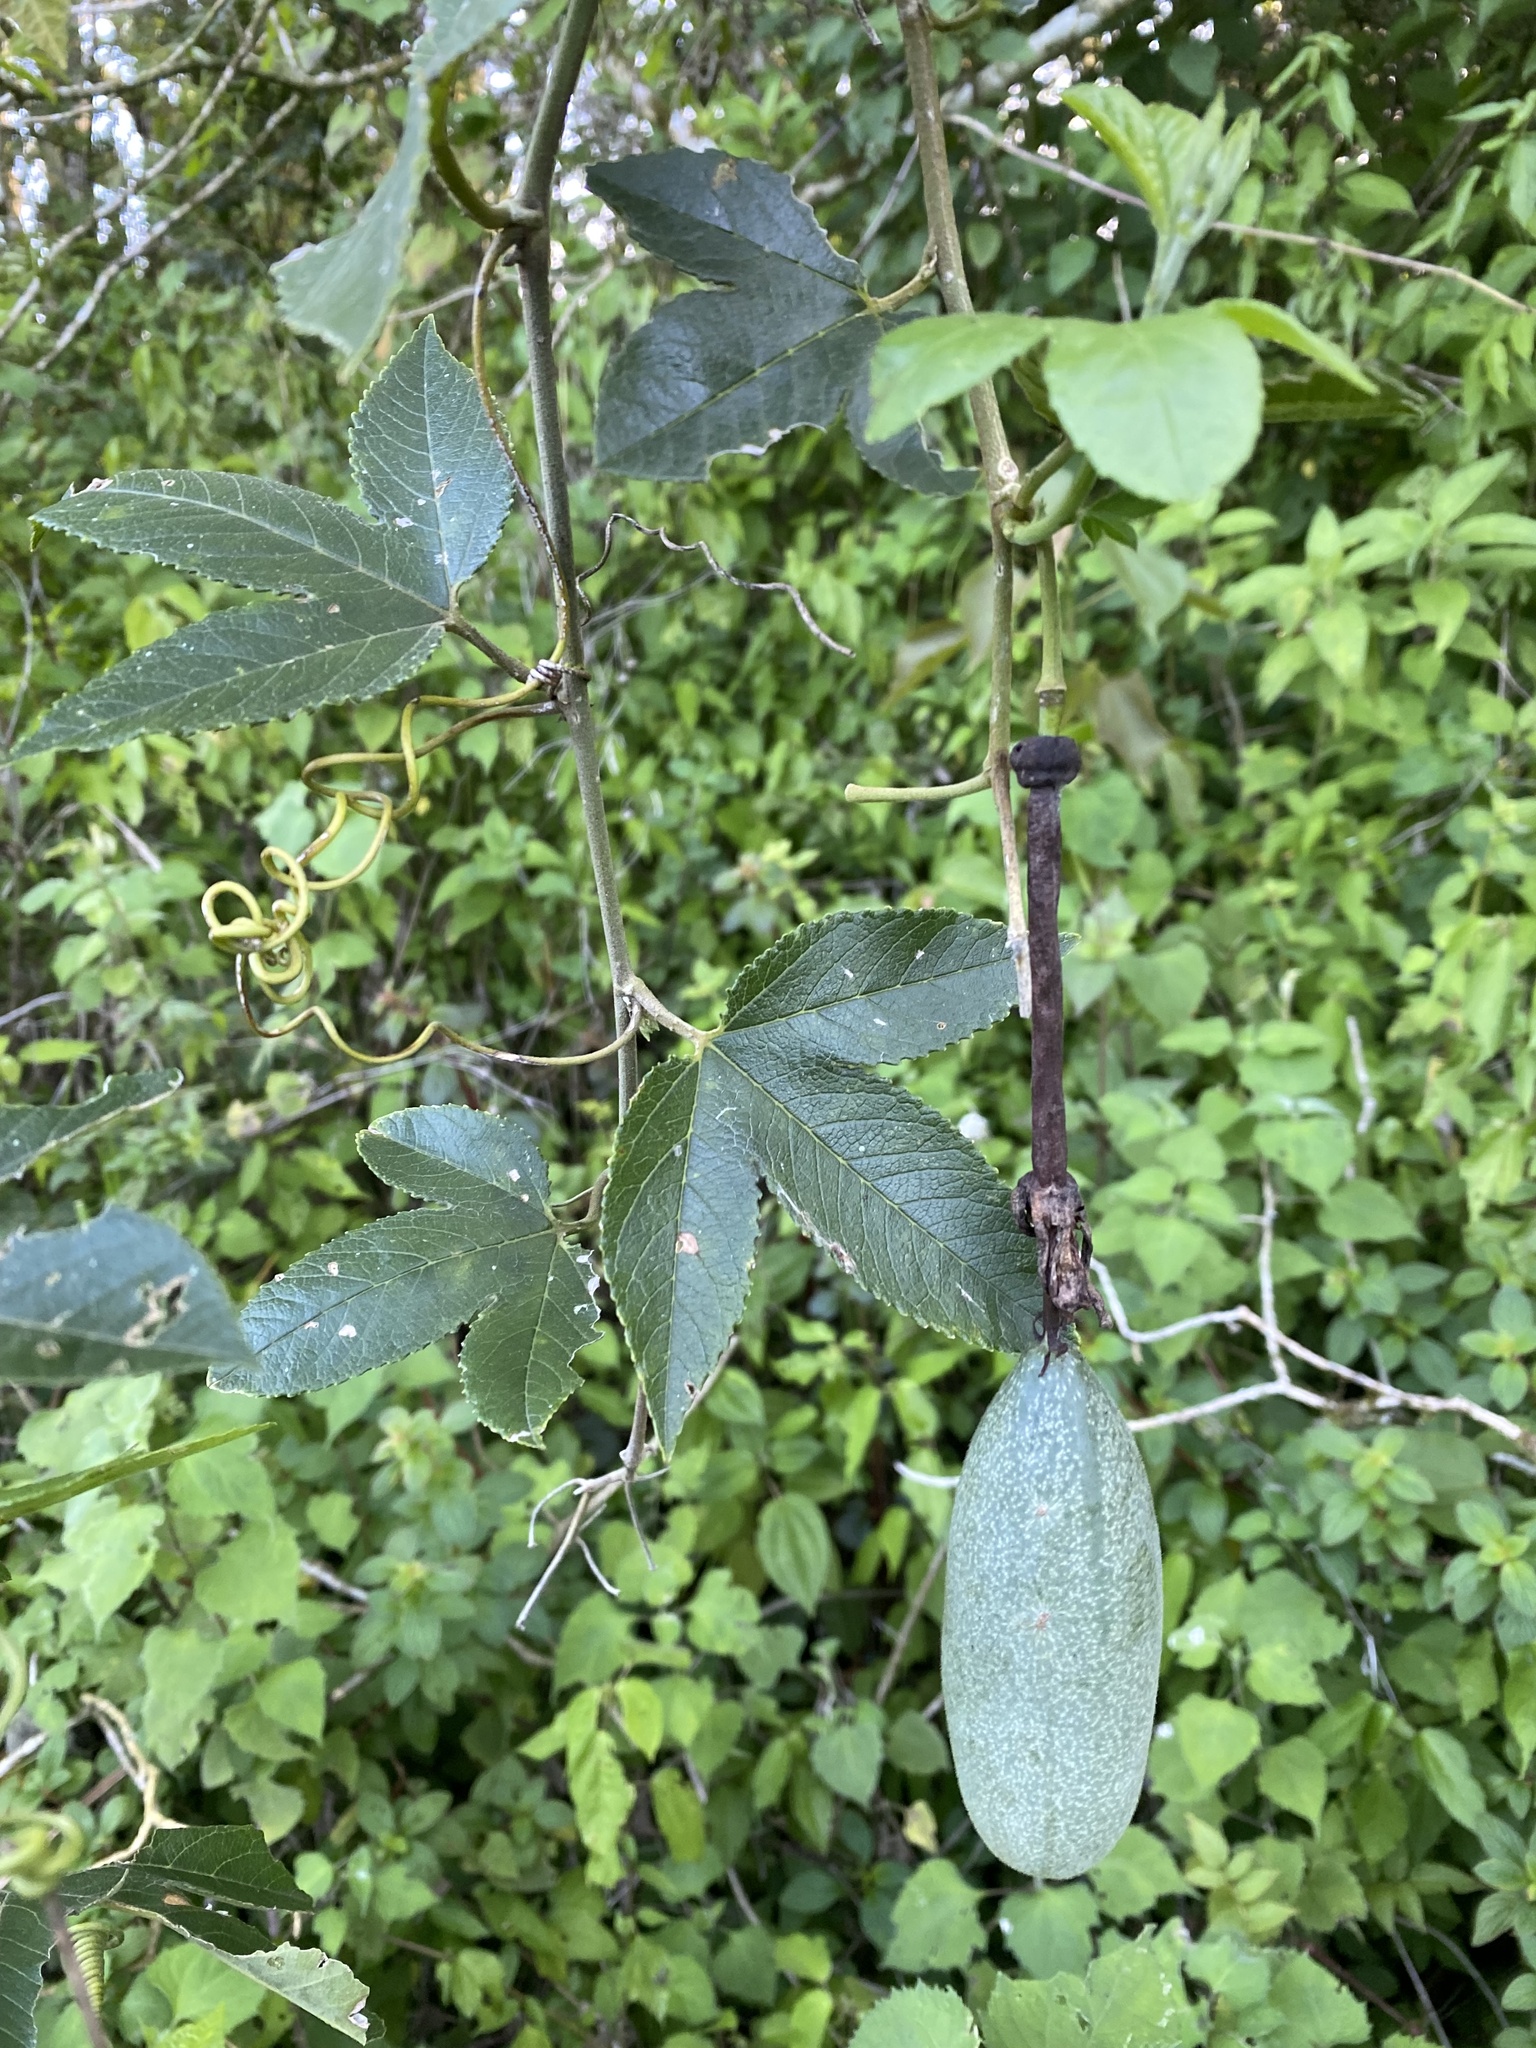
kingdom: Plantae
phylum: Tracheophyta
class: Magnoliopsida
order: Malpighiales
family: Passifloraceae
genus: Passiflora
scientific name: Passiflora tarminiana
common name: Banana poka
